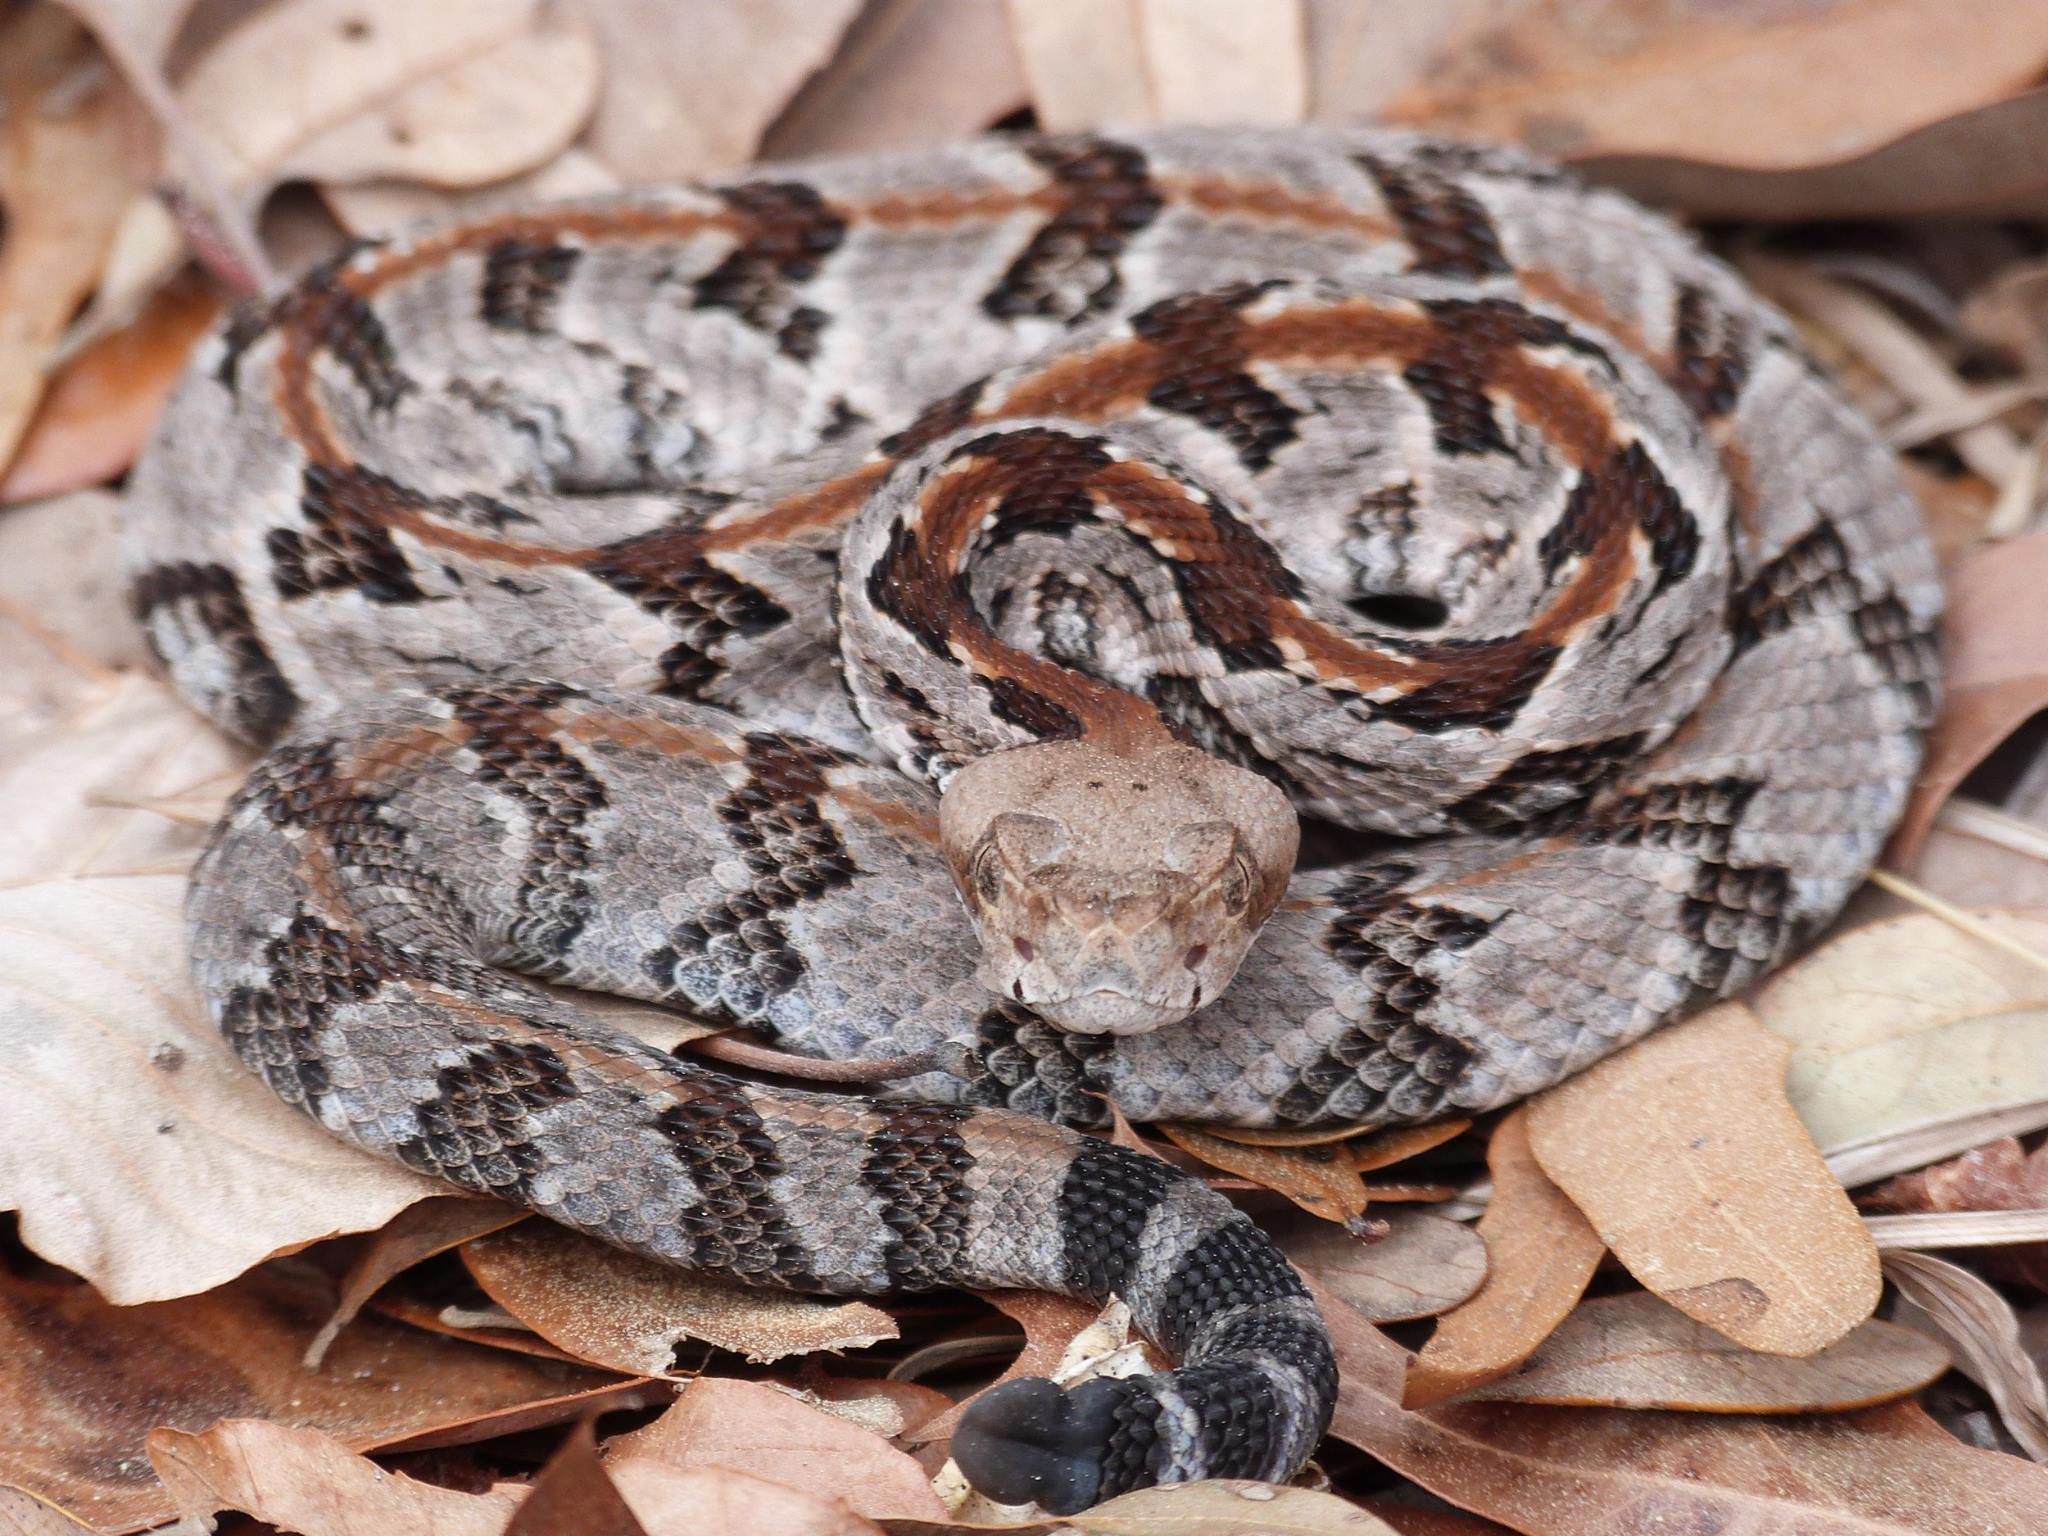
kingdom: Animalia
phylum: Chordata
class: Squamata
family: Viperidae
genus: Crotalus
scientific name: Crotalus horridus
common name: Timber rattlesnake
